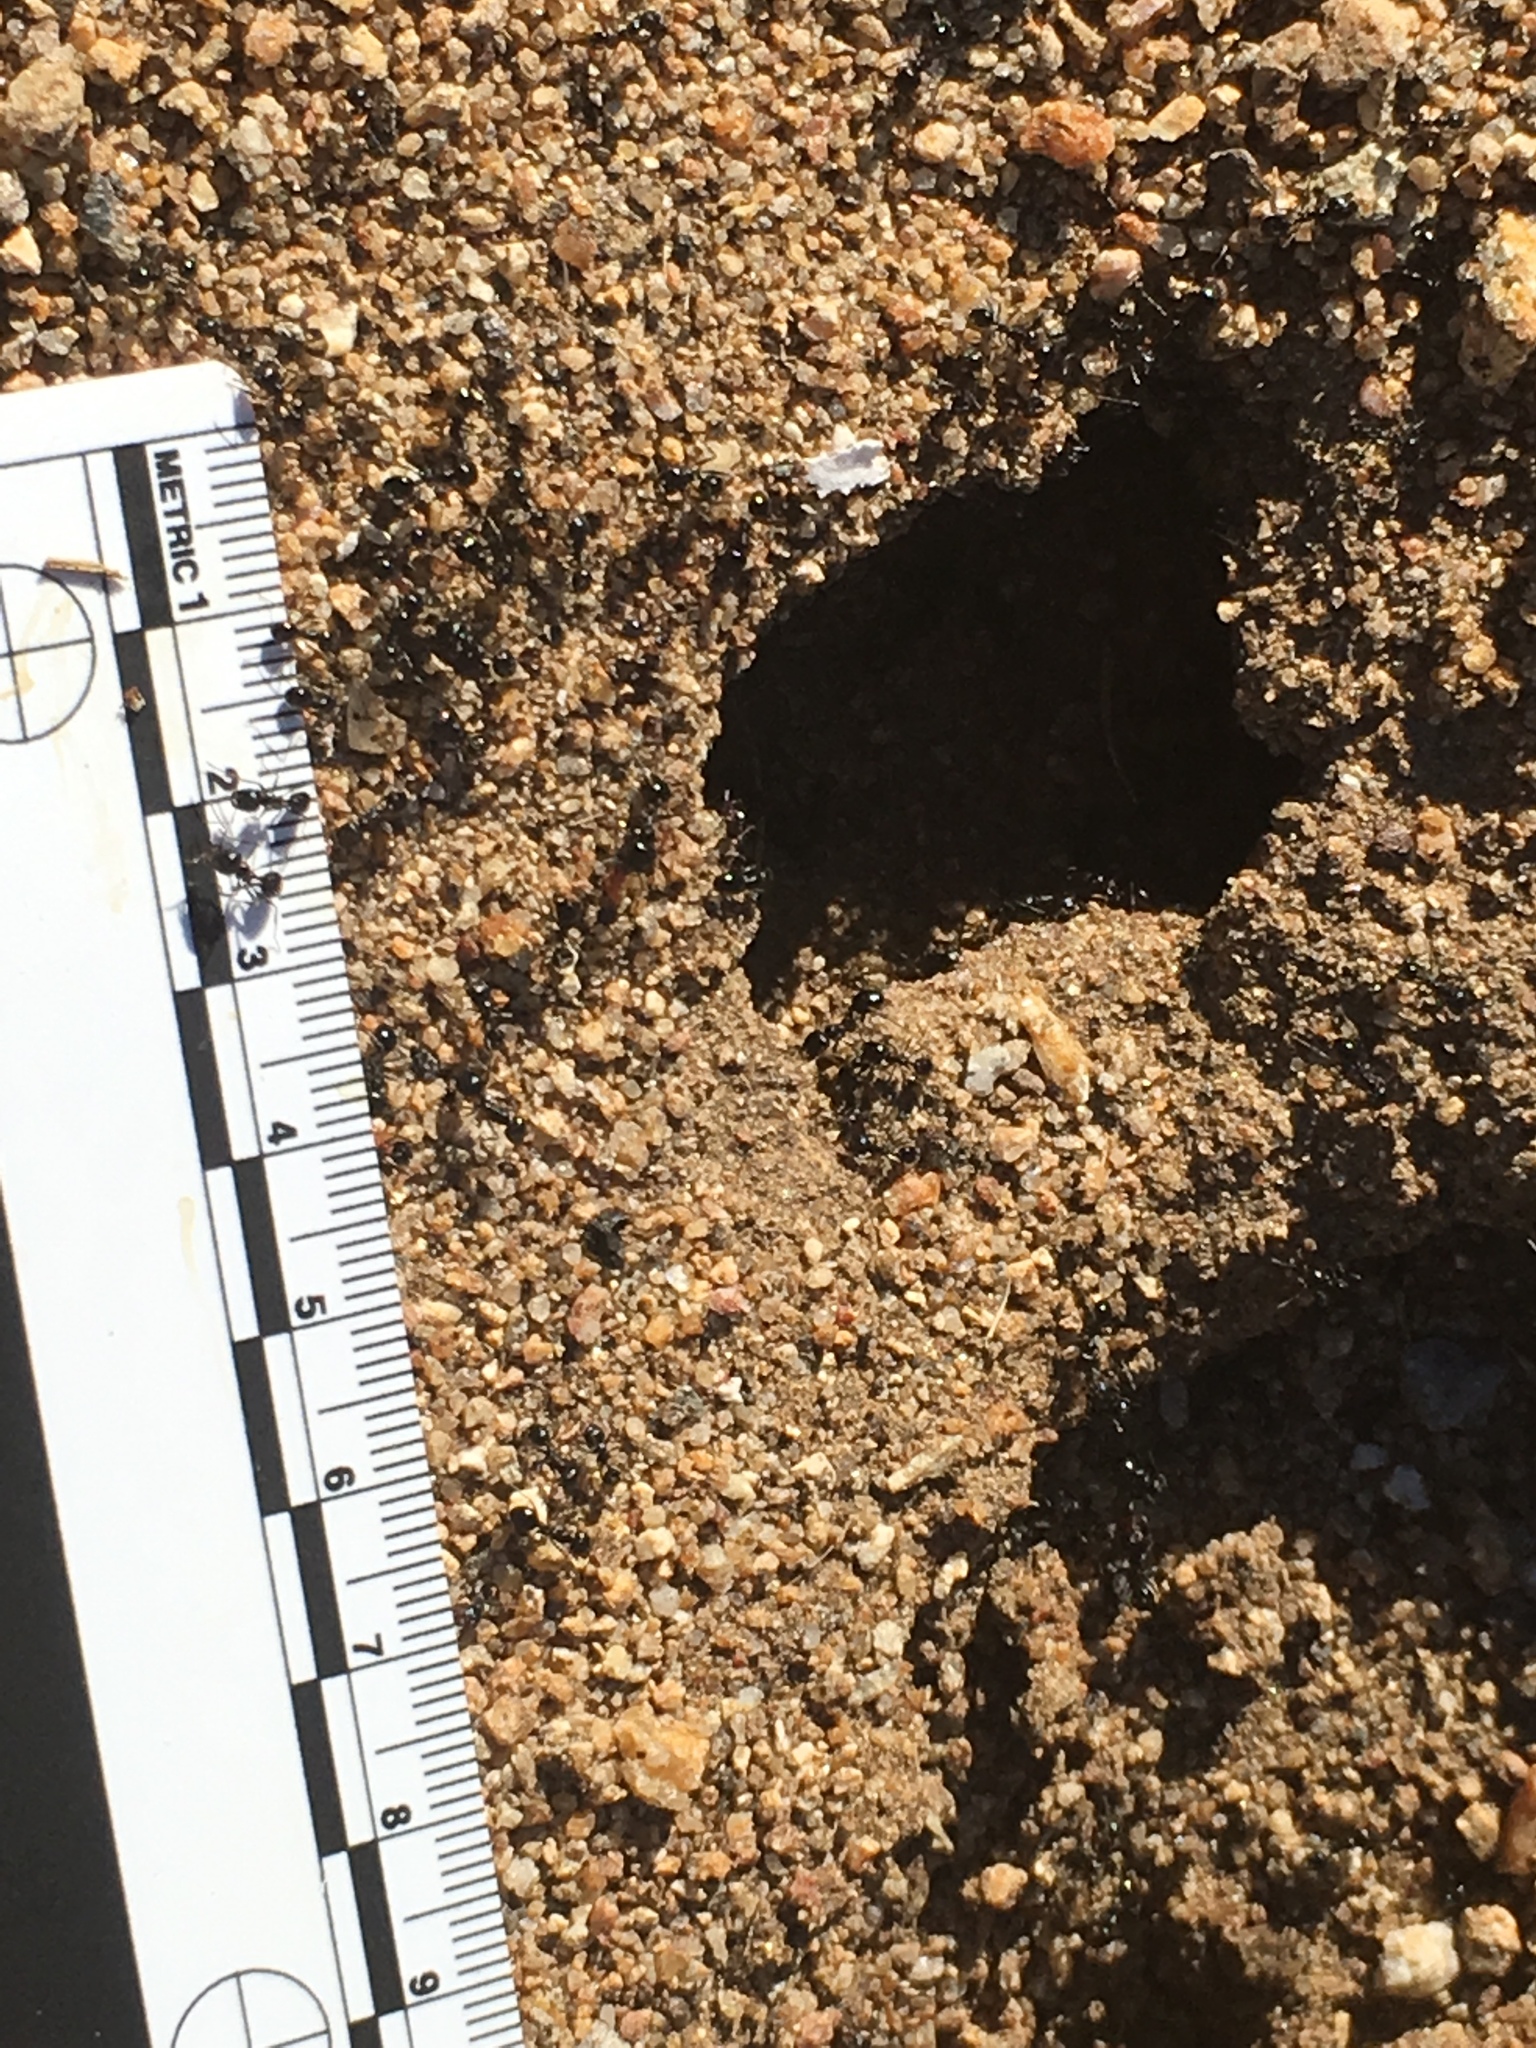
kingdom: Animalia
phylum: Arthropoda
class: Insecta
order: Hymenoptera
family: Formicidae
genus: Messor
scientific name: Messor pergandei
